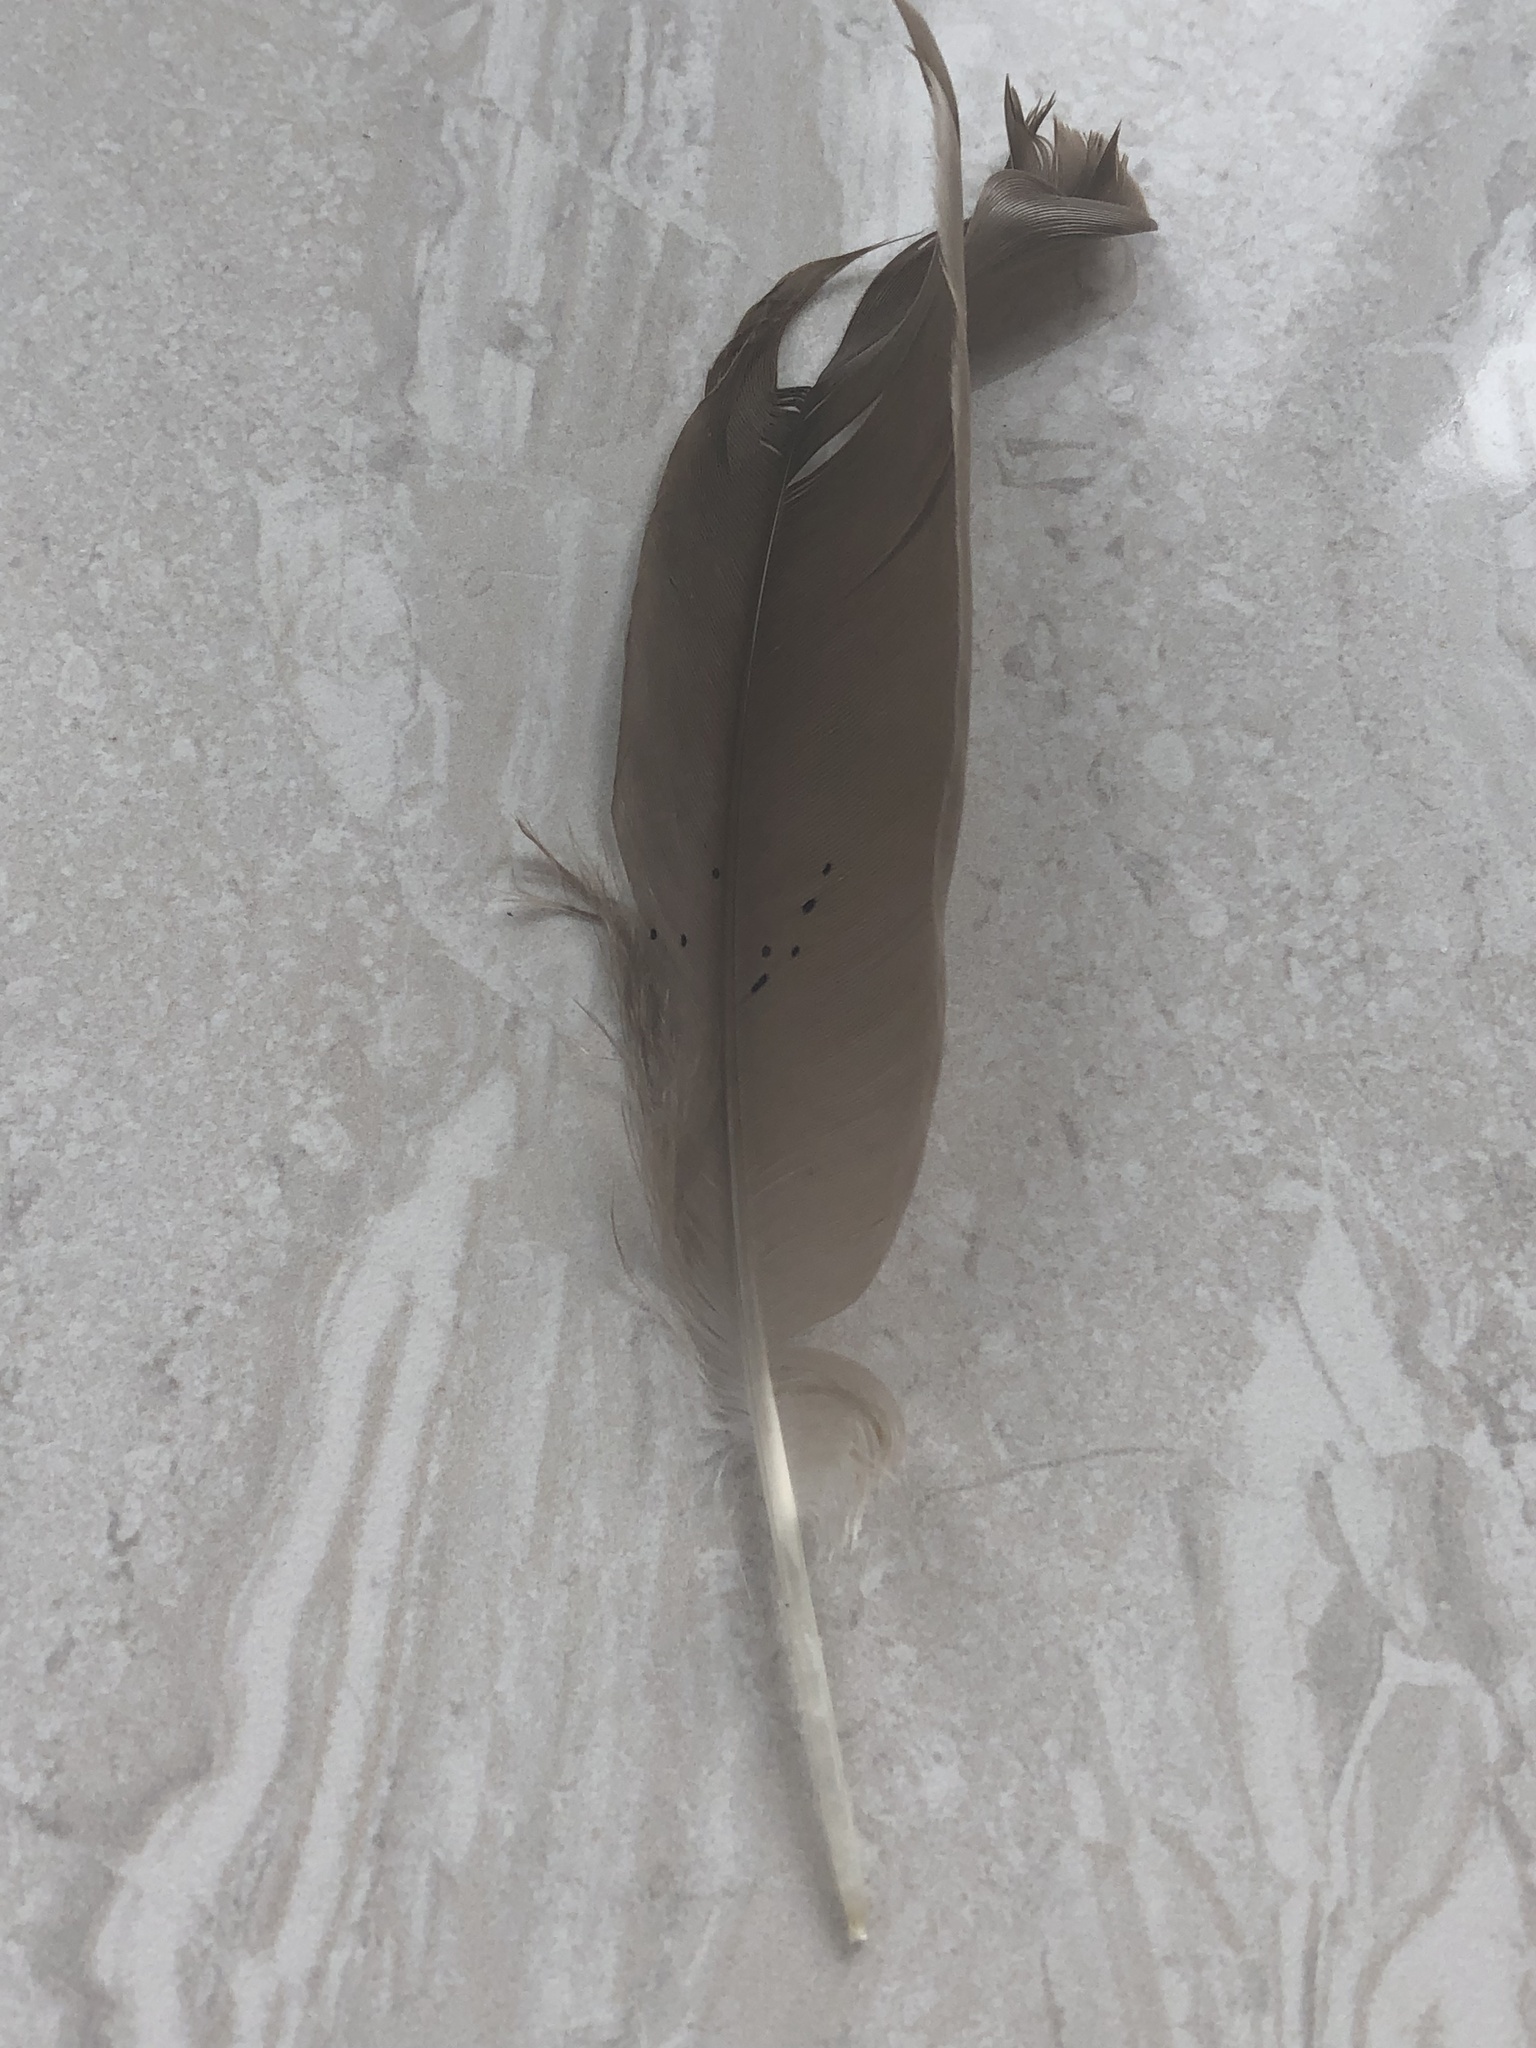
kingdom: Animalia
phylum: Chordata
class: Aves
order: Anseriformes
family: Anatidae
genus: Branta
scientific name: Branta canadensis
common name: Canada goose
